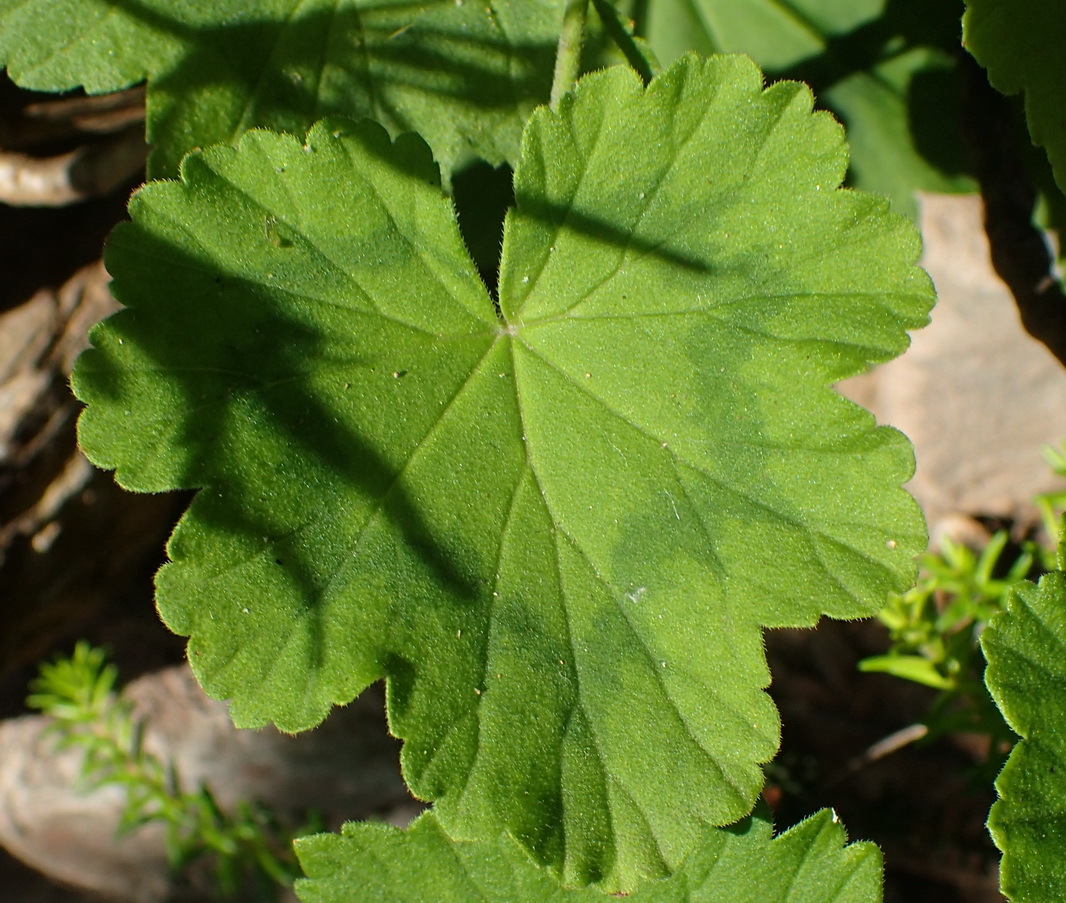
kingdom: Plantae
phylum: Tracheophyta
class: Magnoliopsida
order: Geraniales
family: Geraniaceae
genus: Pelargonium
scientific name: Pelargonium zonale
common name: Horseshoe geranium
